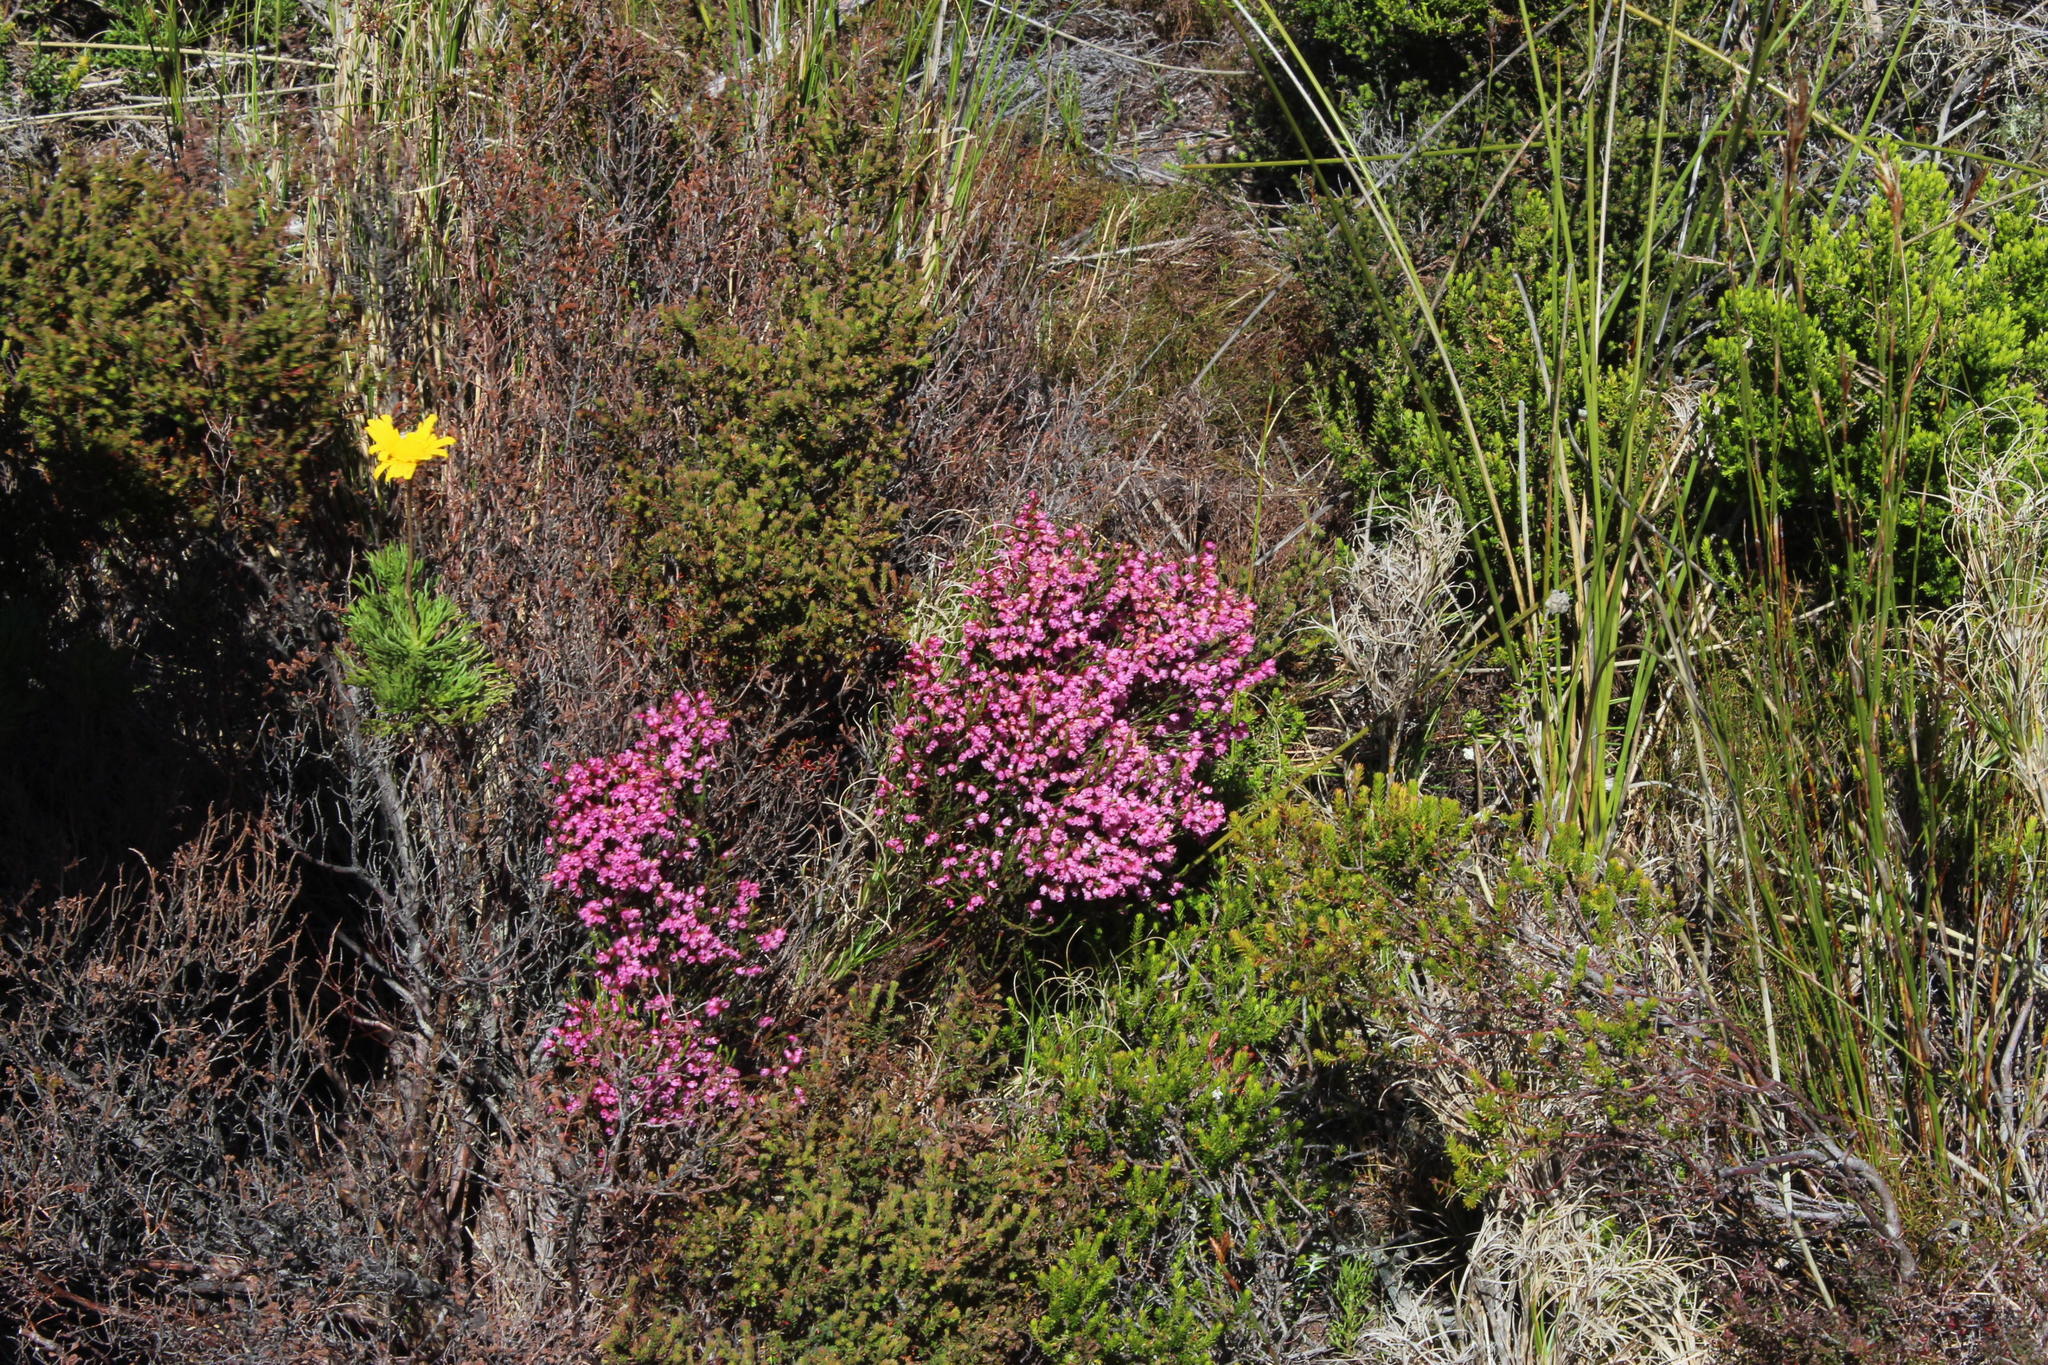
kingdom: Plantae
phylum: Tracheophyta
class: Magnoliopsida
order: Ericales
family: Ericaceae
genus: Erica
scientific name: Erica tenuifolia
